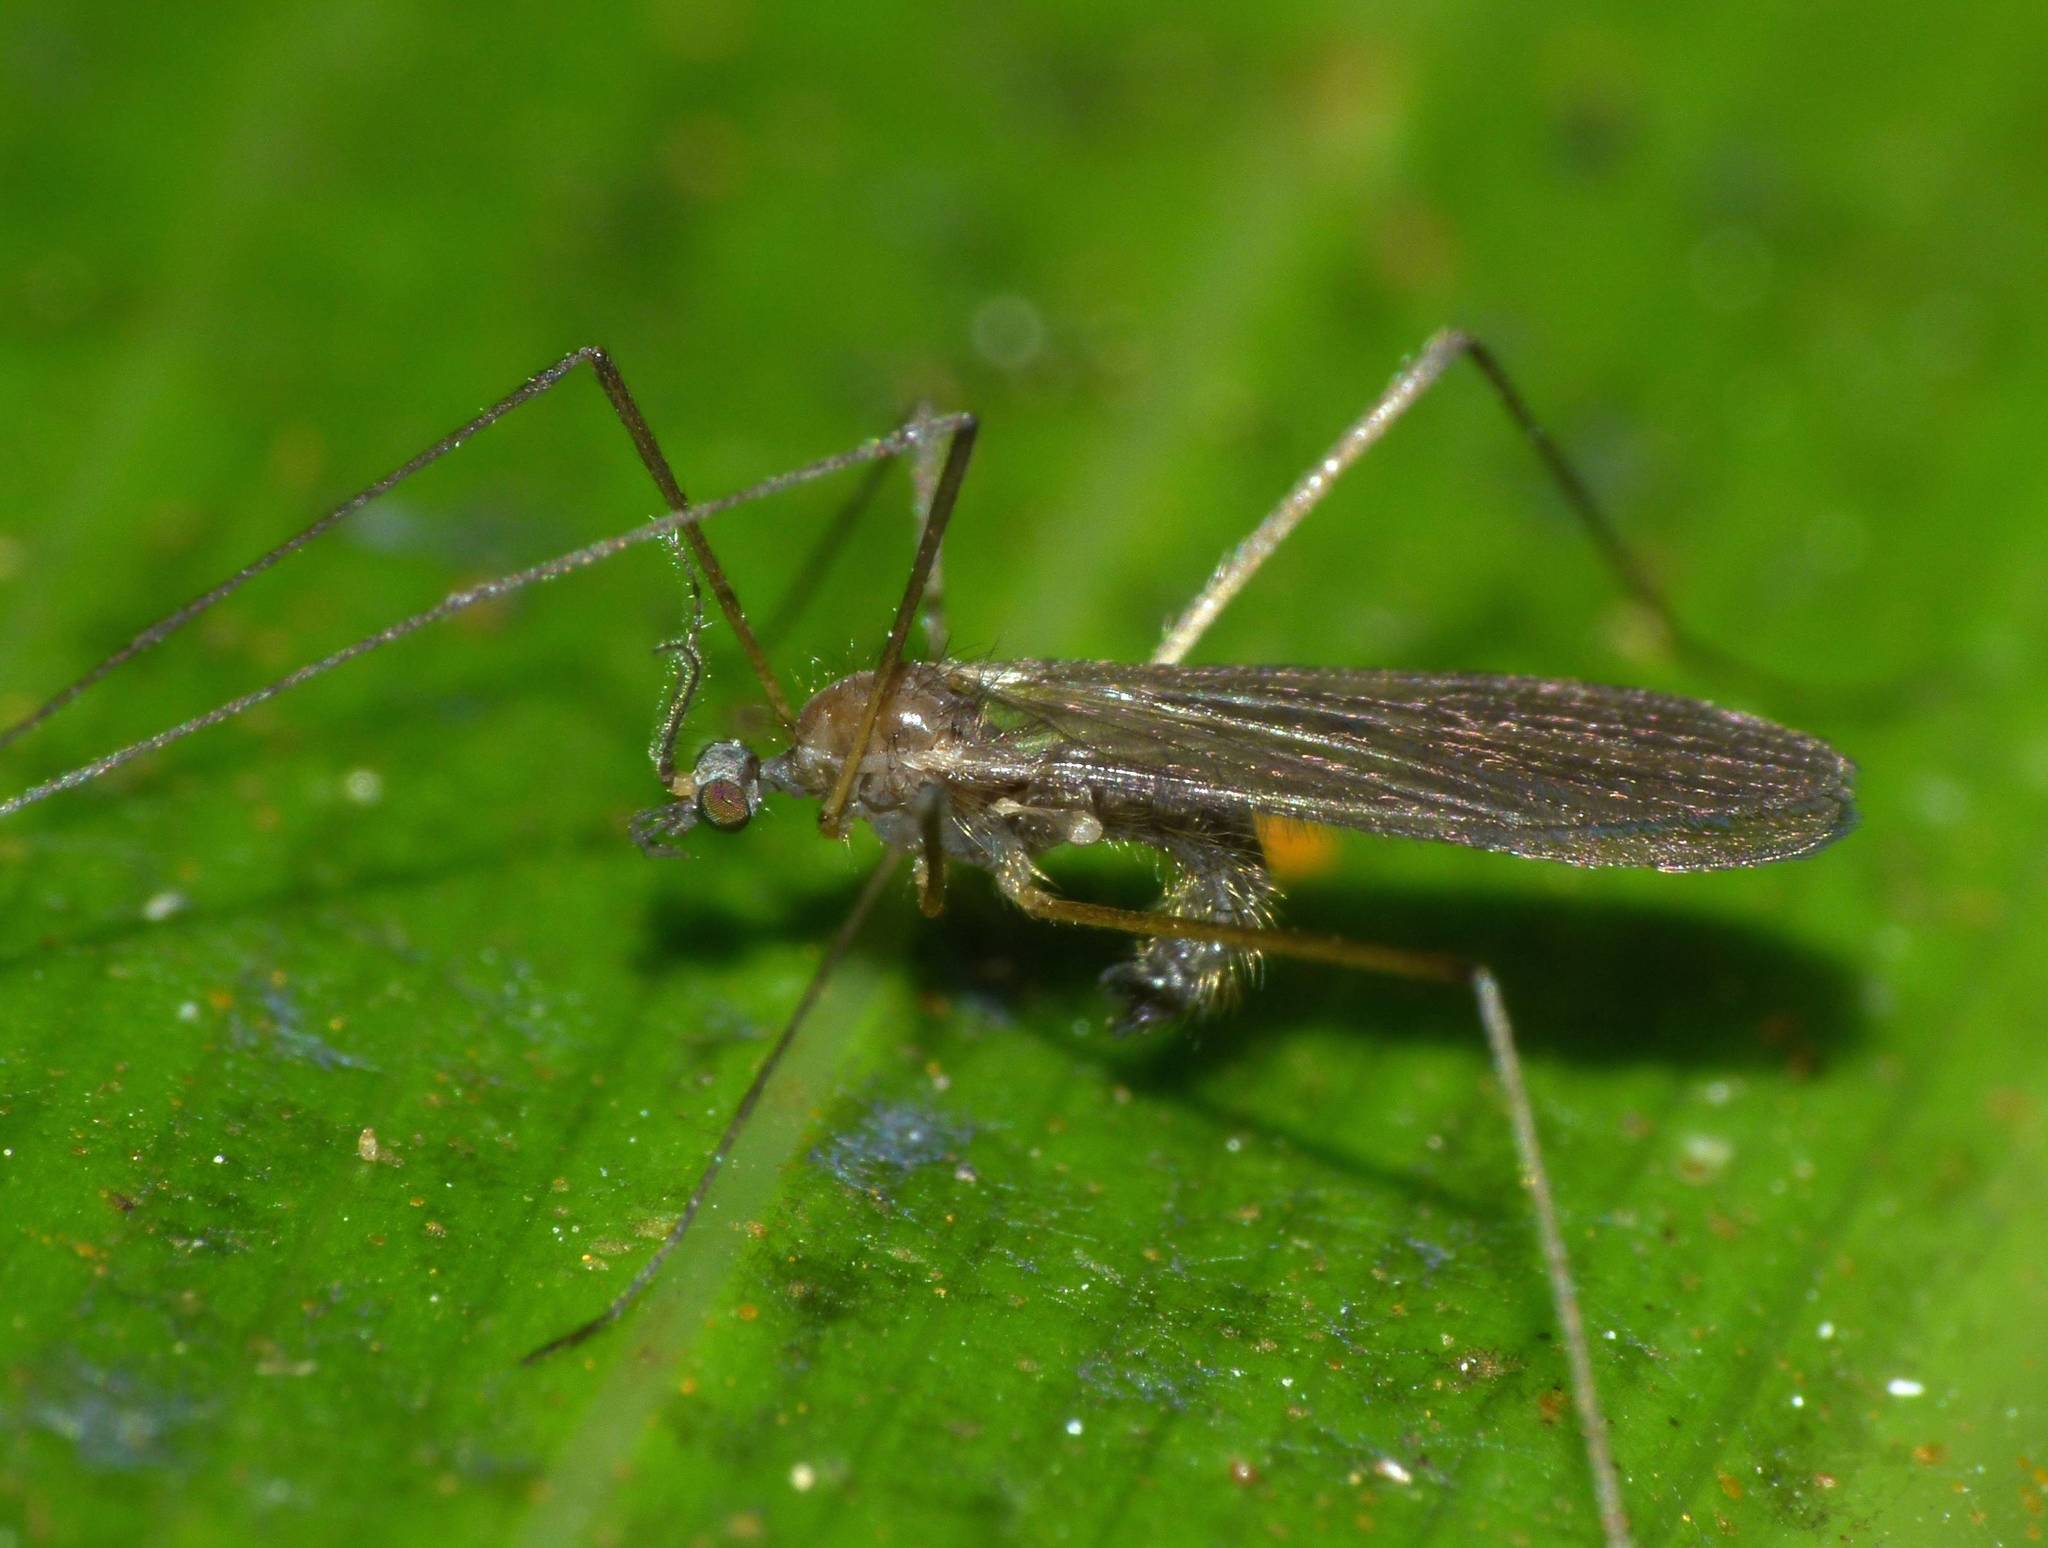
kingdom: Animalia
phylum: Arthropoda
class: Insecta
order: Diptera
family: Limoniidae
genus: Amphineurus
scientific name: Amphineurus insulsus
